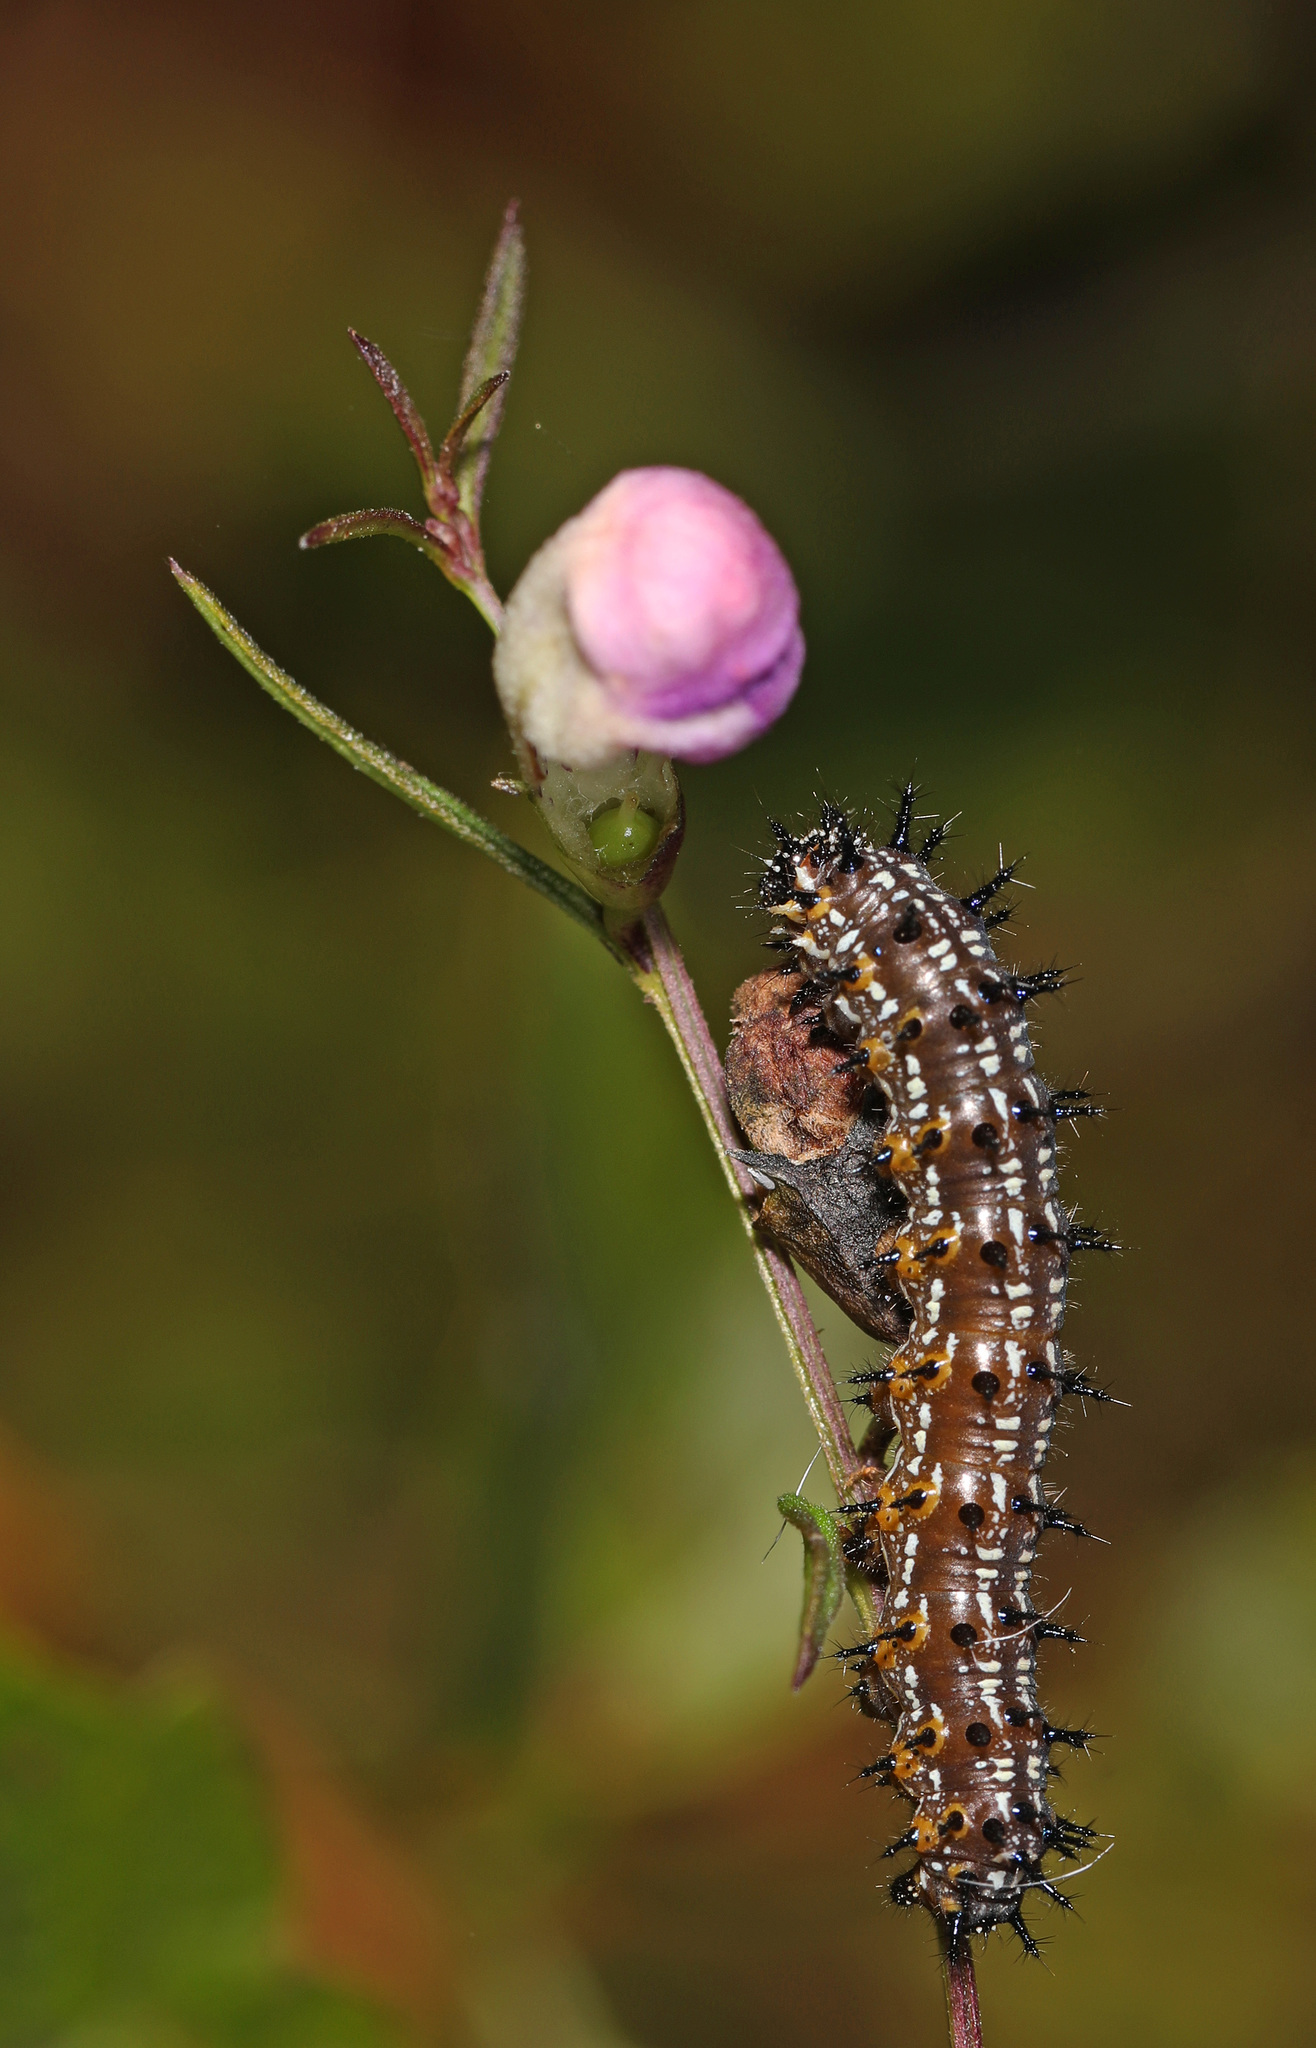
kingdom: Animalia
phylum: Arthropoda
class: Insecta
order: Lepidoptera
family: Nymphalidae
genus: Junonia
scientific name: Junonia coenia
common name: Common buckeye
